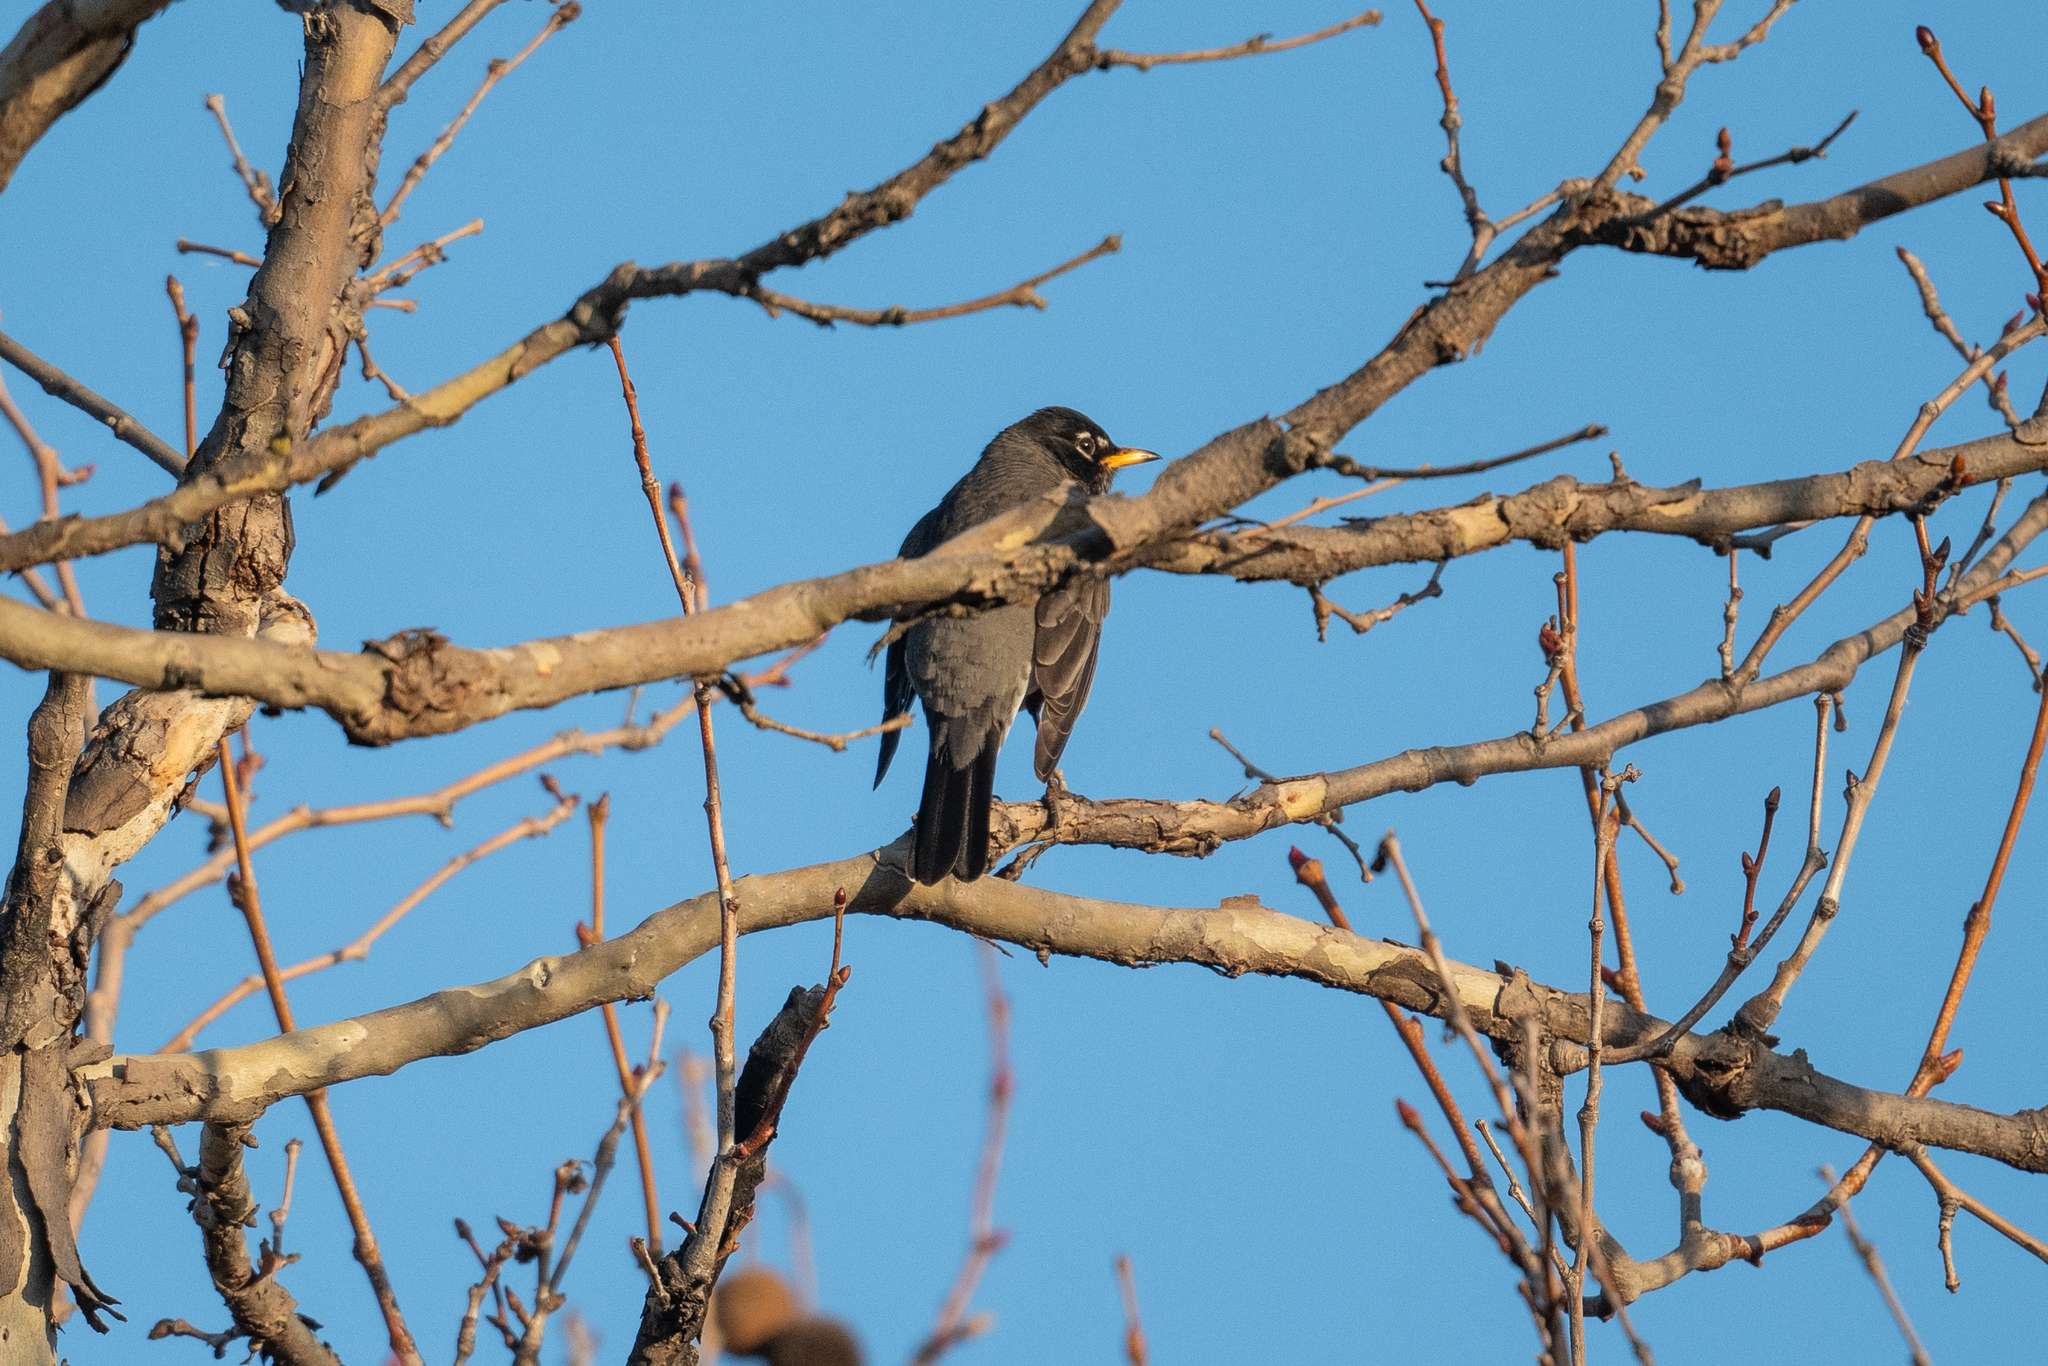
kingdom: Animalia
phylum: Chordata
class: Aves
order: Passeriformes
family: Turdidae
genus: Turdus
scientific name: Turdus migratorius
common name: American robin
